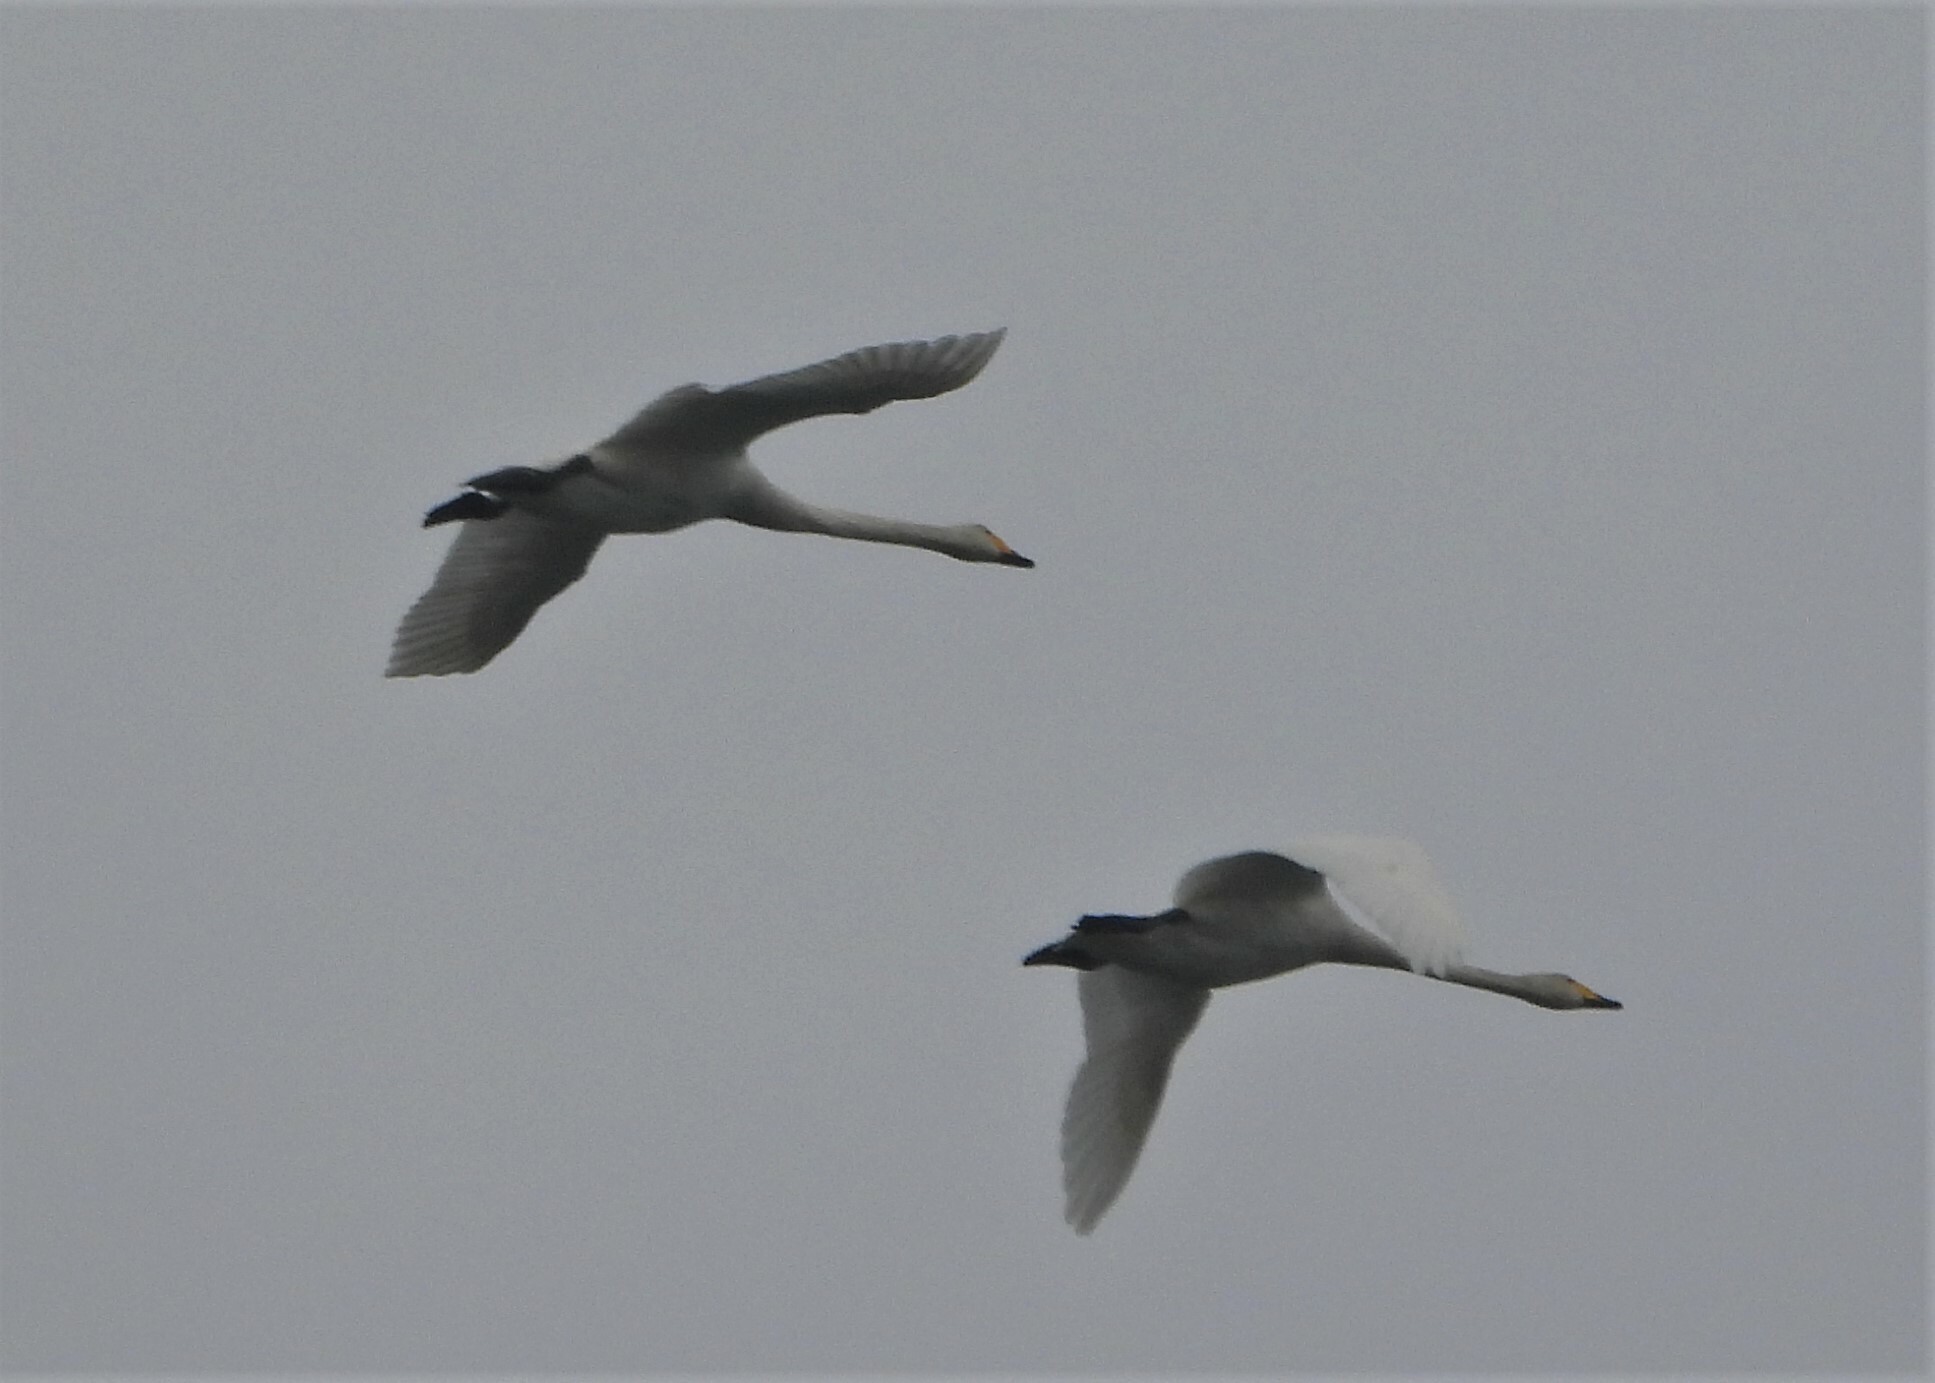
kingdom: Animalia
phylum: Chordata
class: Aves
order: Anseriformes
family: Anatidae
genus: Cygnus
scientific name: Cygnus cygnus
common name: Whooper swan
